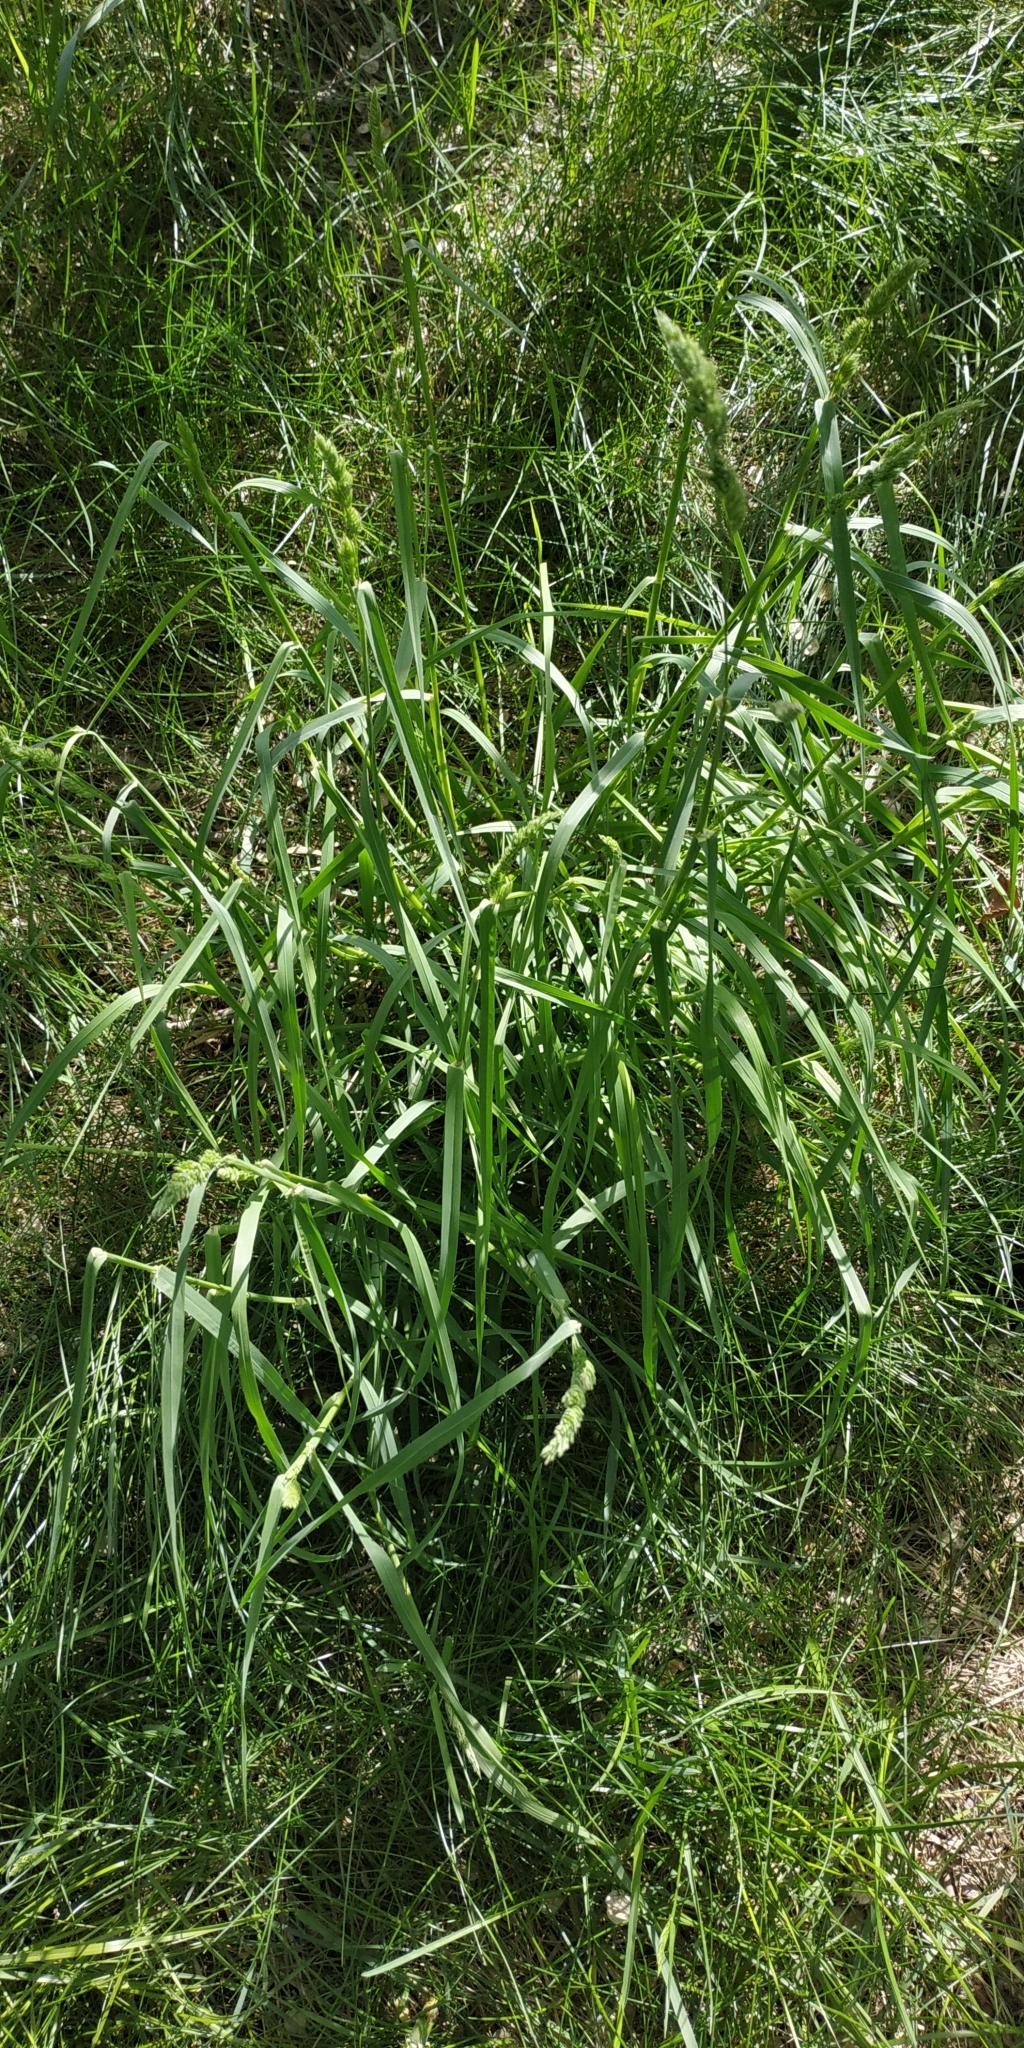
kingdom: Plantae
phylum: Tracheophyta
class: Liliopsida
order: Poales
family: Poaceae
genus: Dactylis
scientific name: Dactylis glomerata
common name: Orchardgrass
